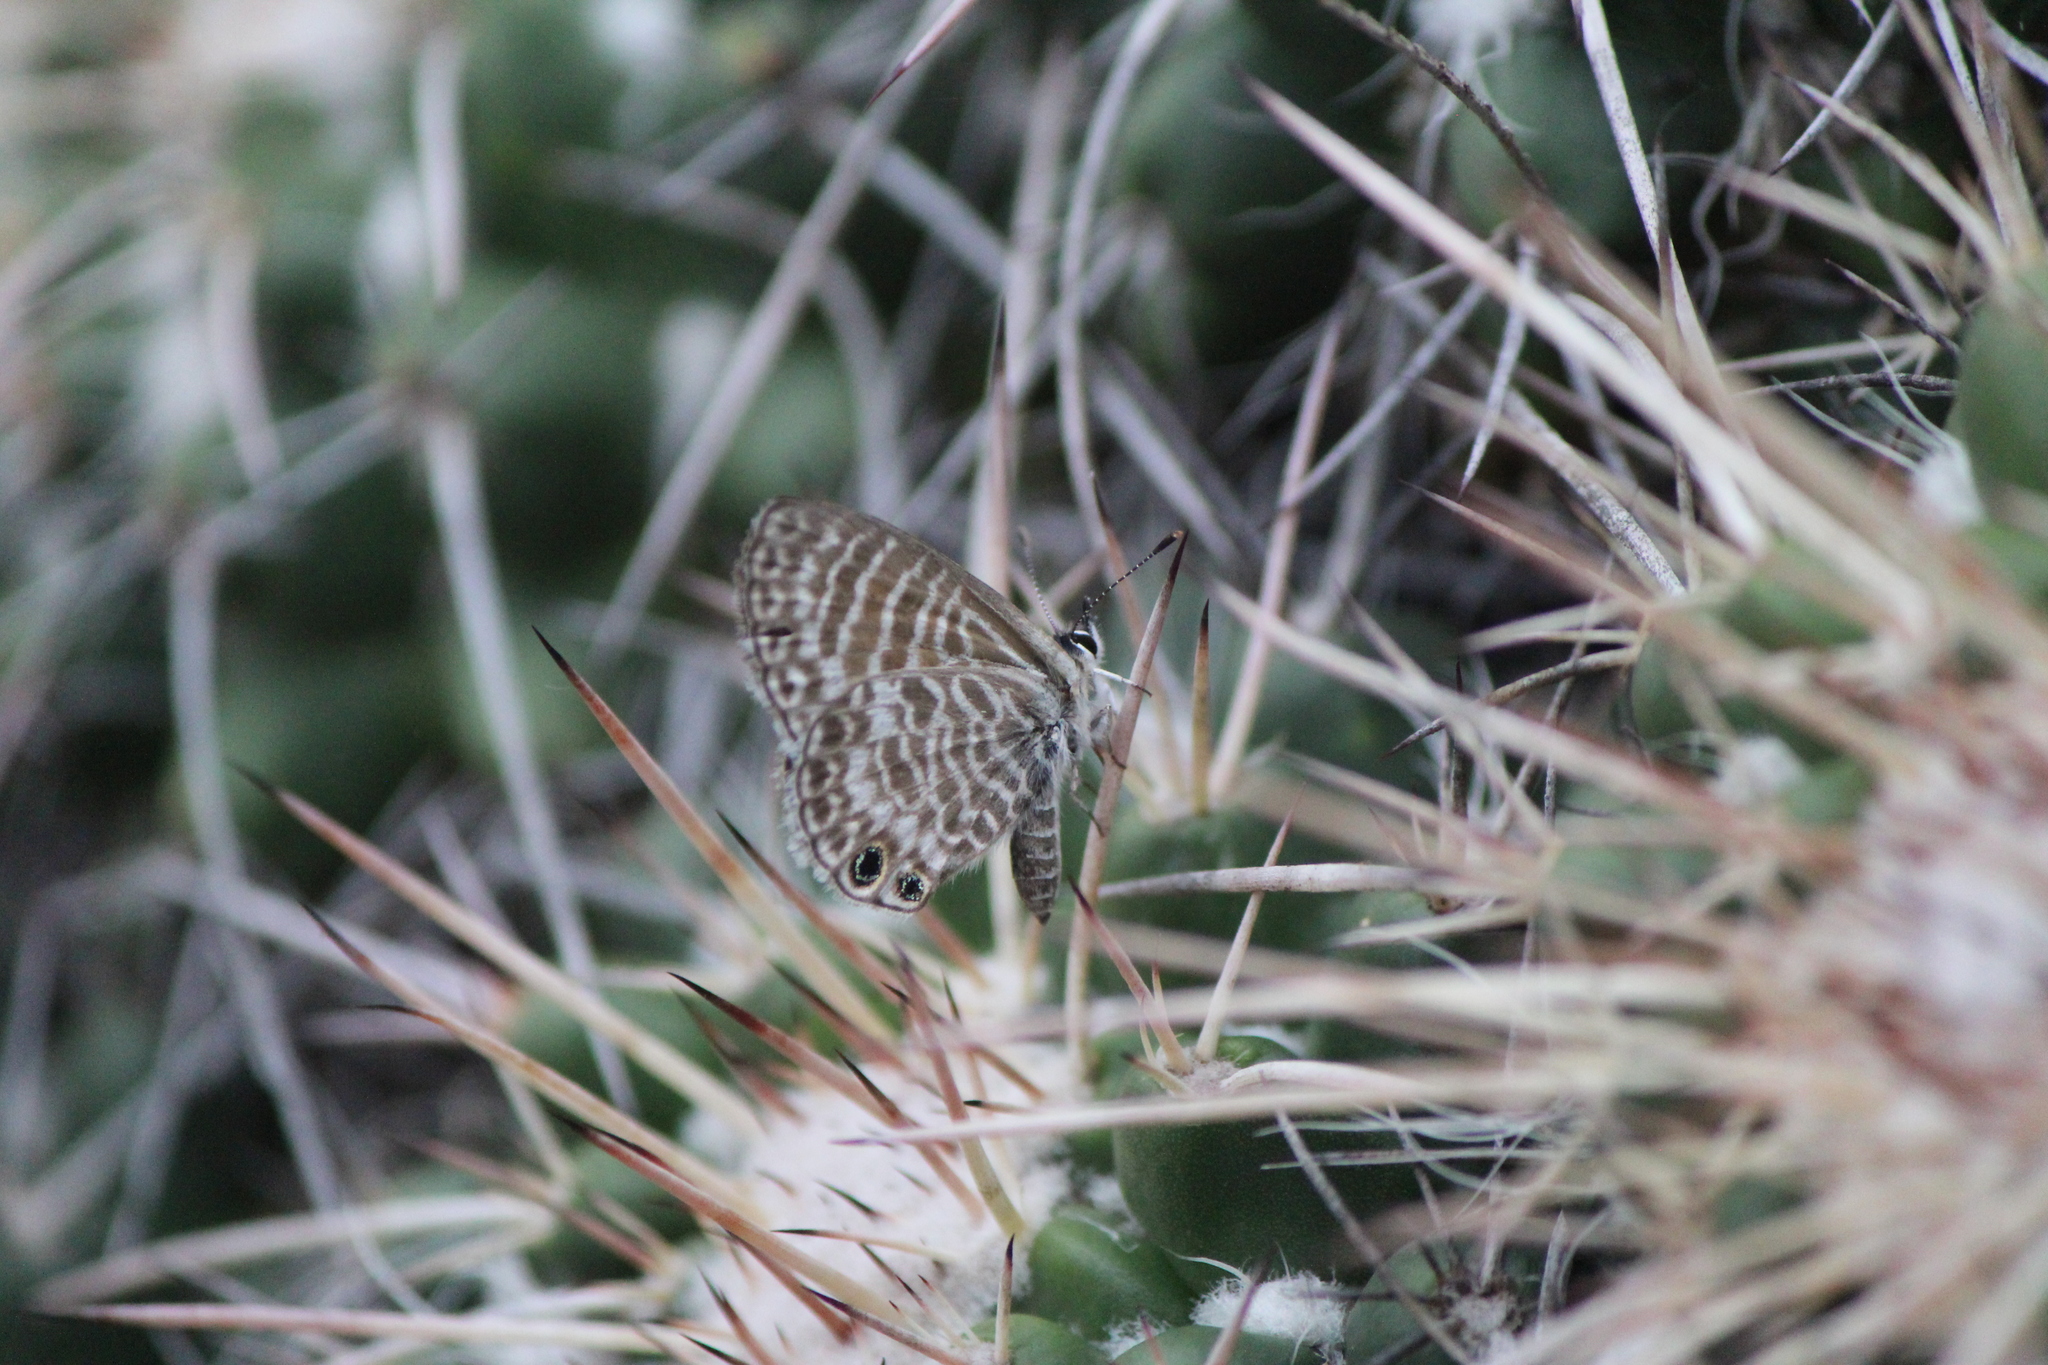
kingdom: Animalia
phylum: Arthropoda
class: Insecta
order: Lepidoptera
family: Lycaenidae
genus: Leptotes
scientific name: Leptotes marina
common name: Marine blue
